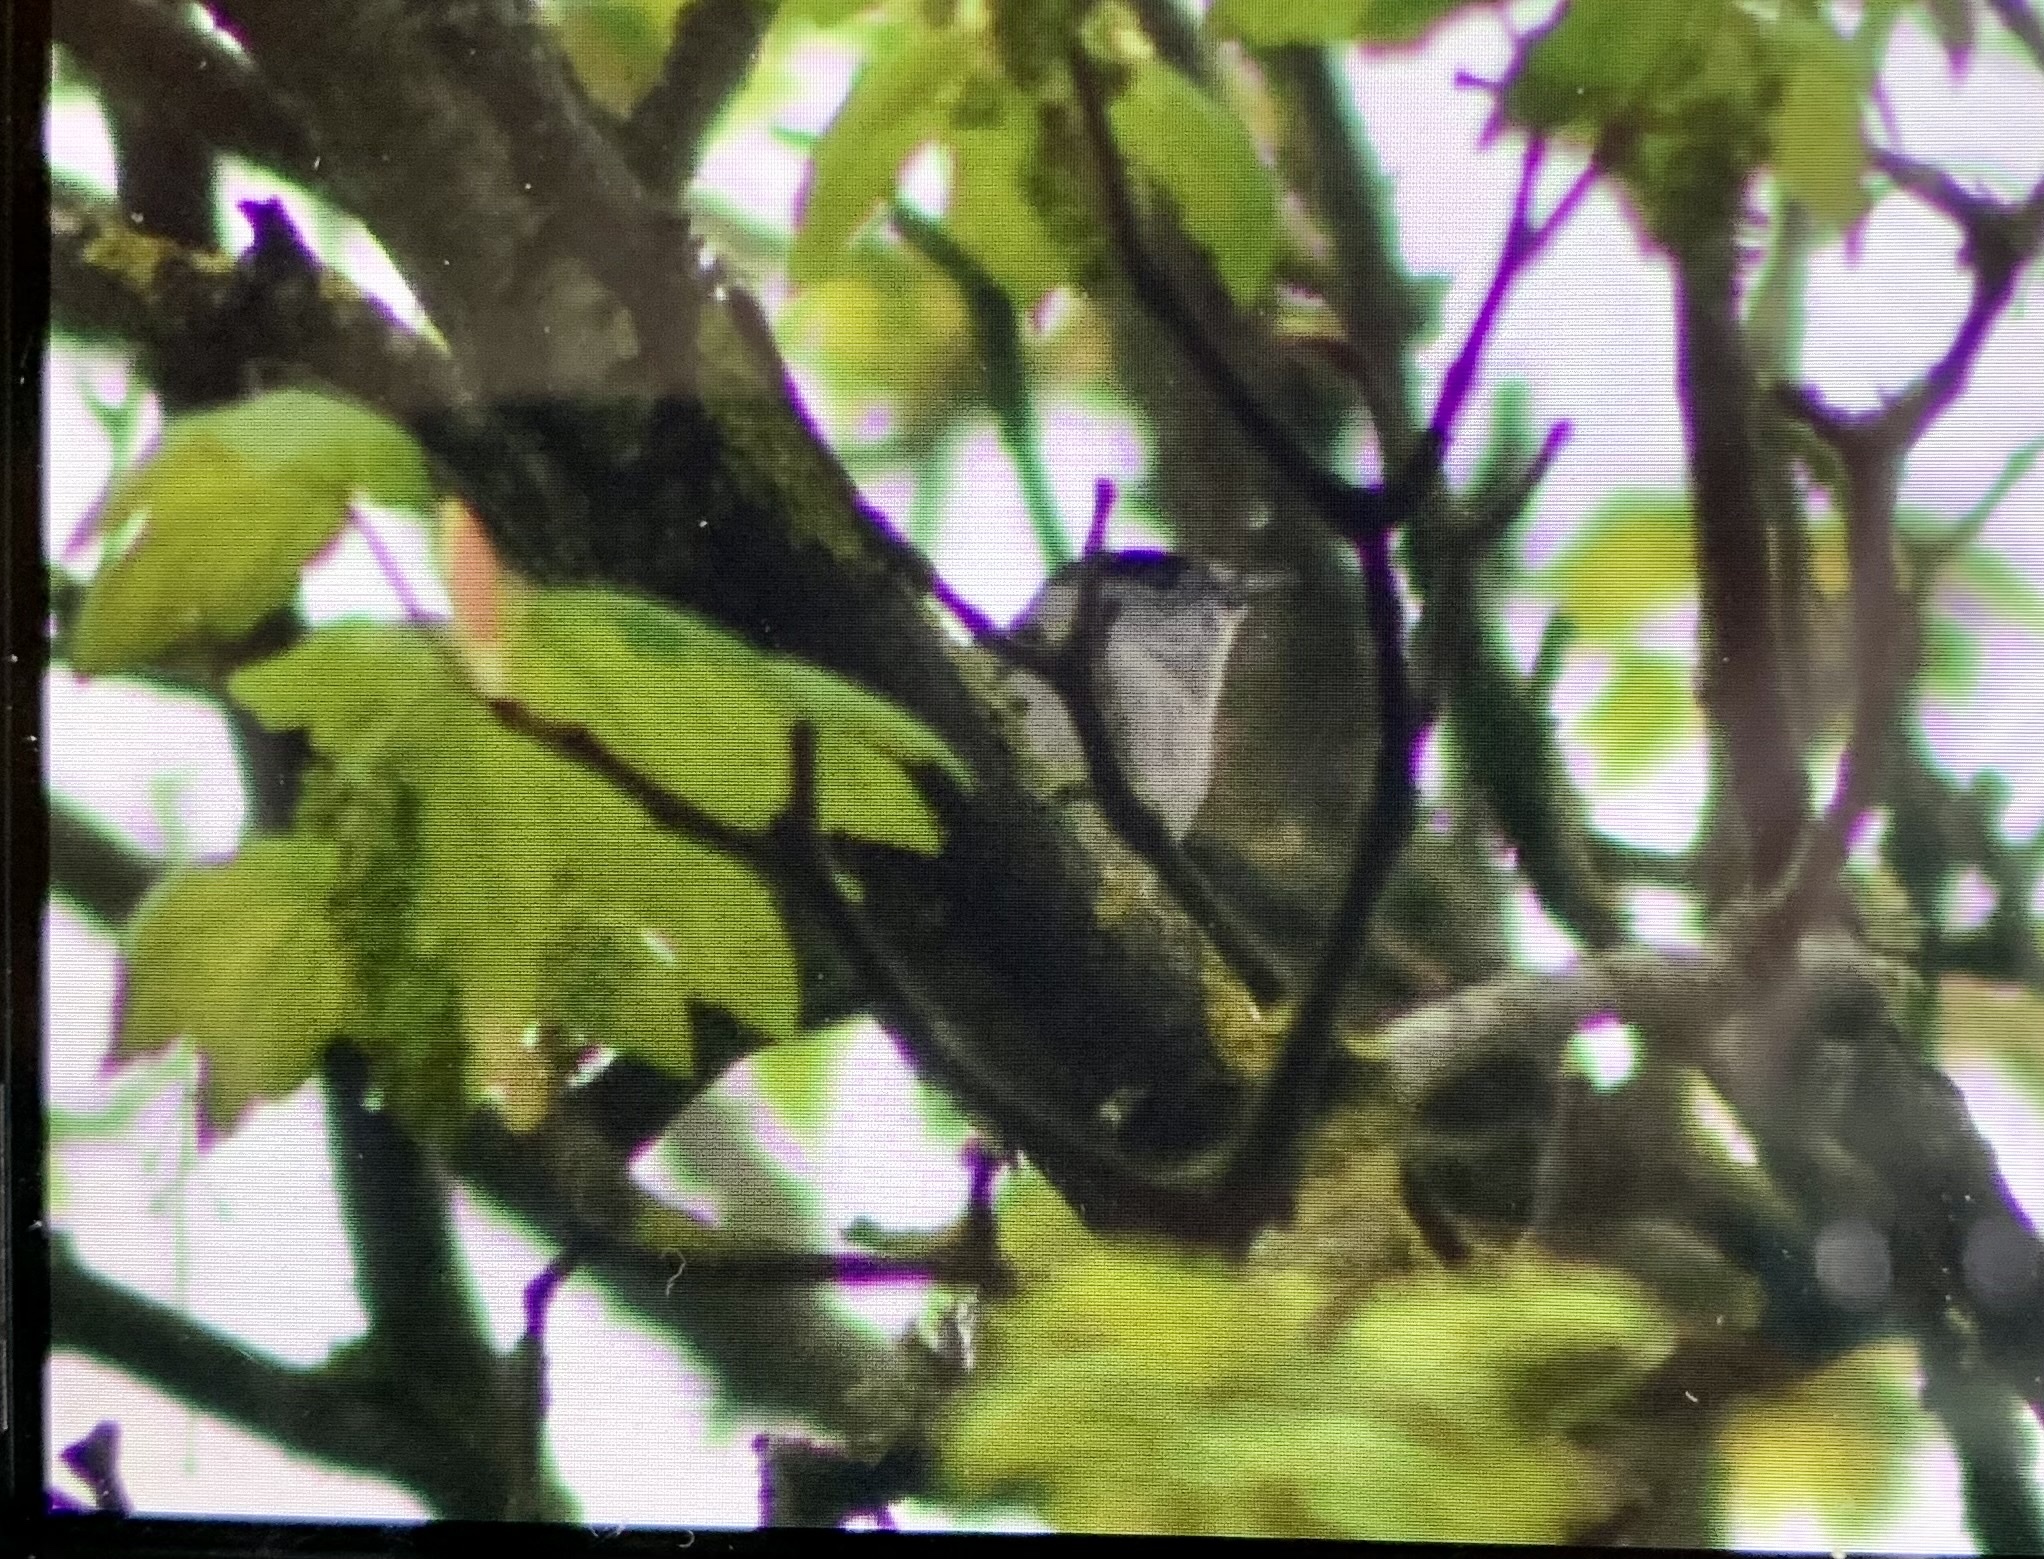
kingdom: Animalia
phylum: Chordata
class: Aves
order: Passeriformes
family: Sylviidae
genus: Sylvia
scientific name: Sylvia atricapilla
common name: Eurasian blackcap
